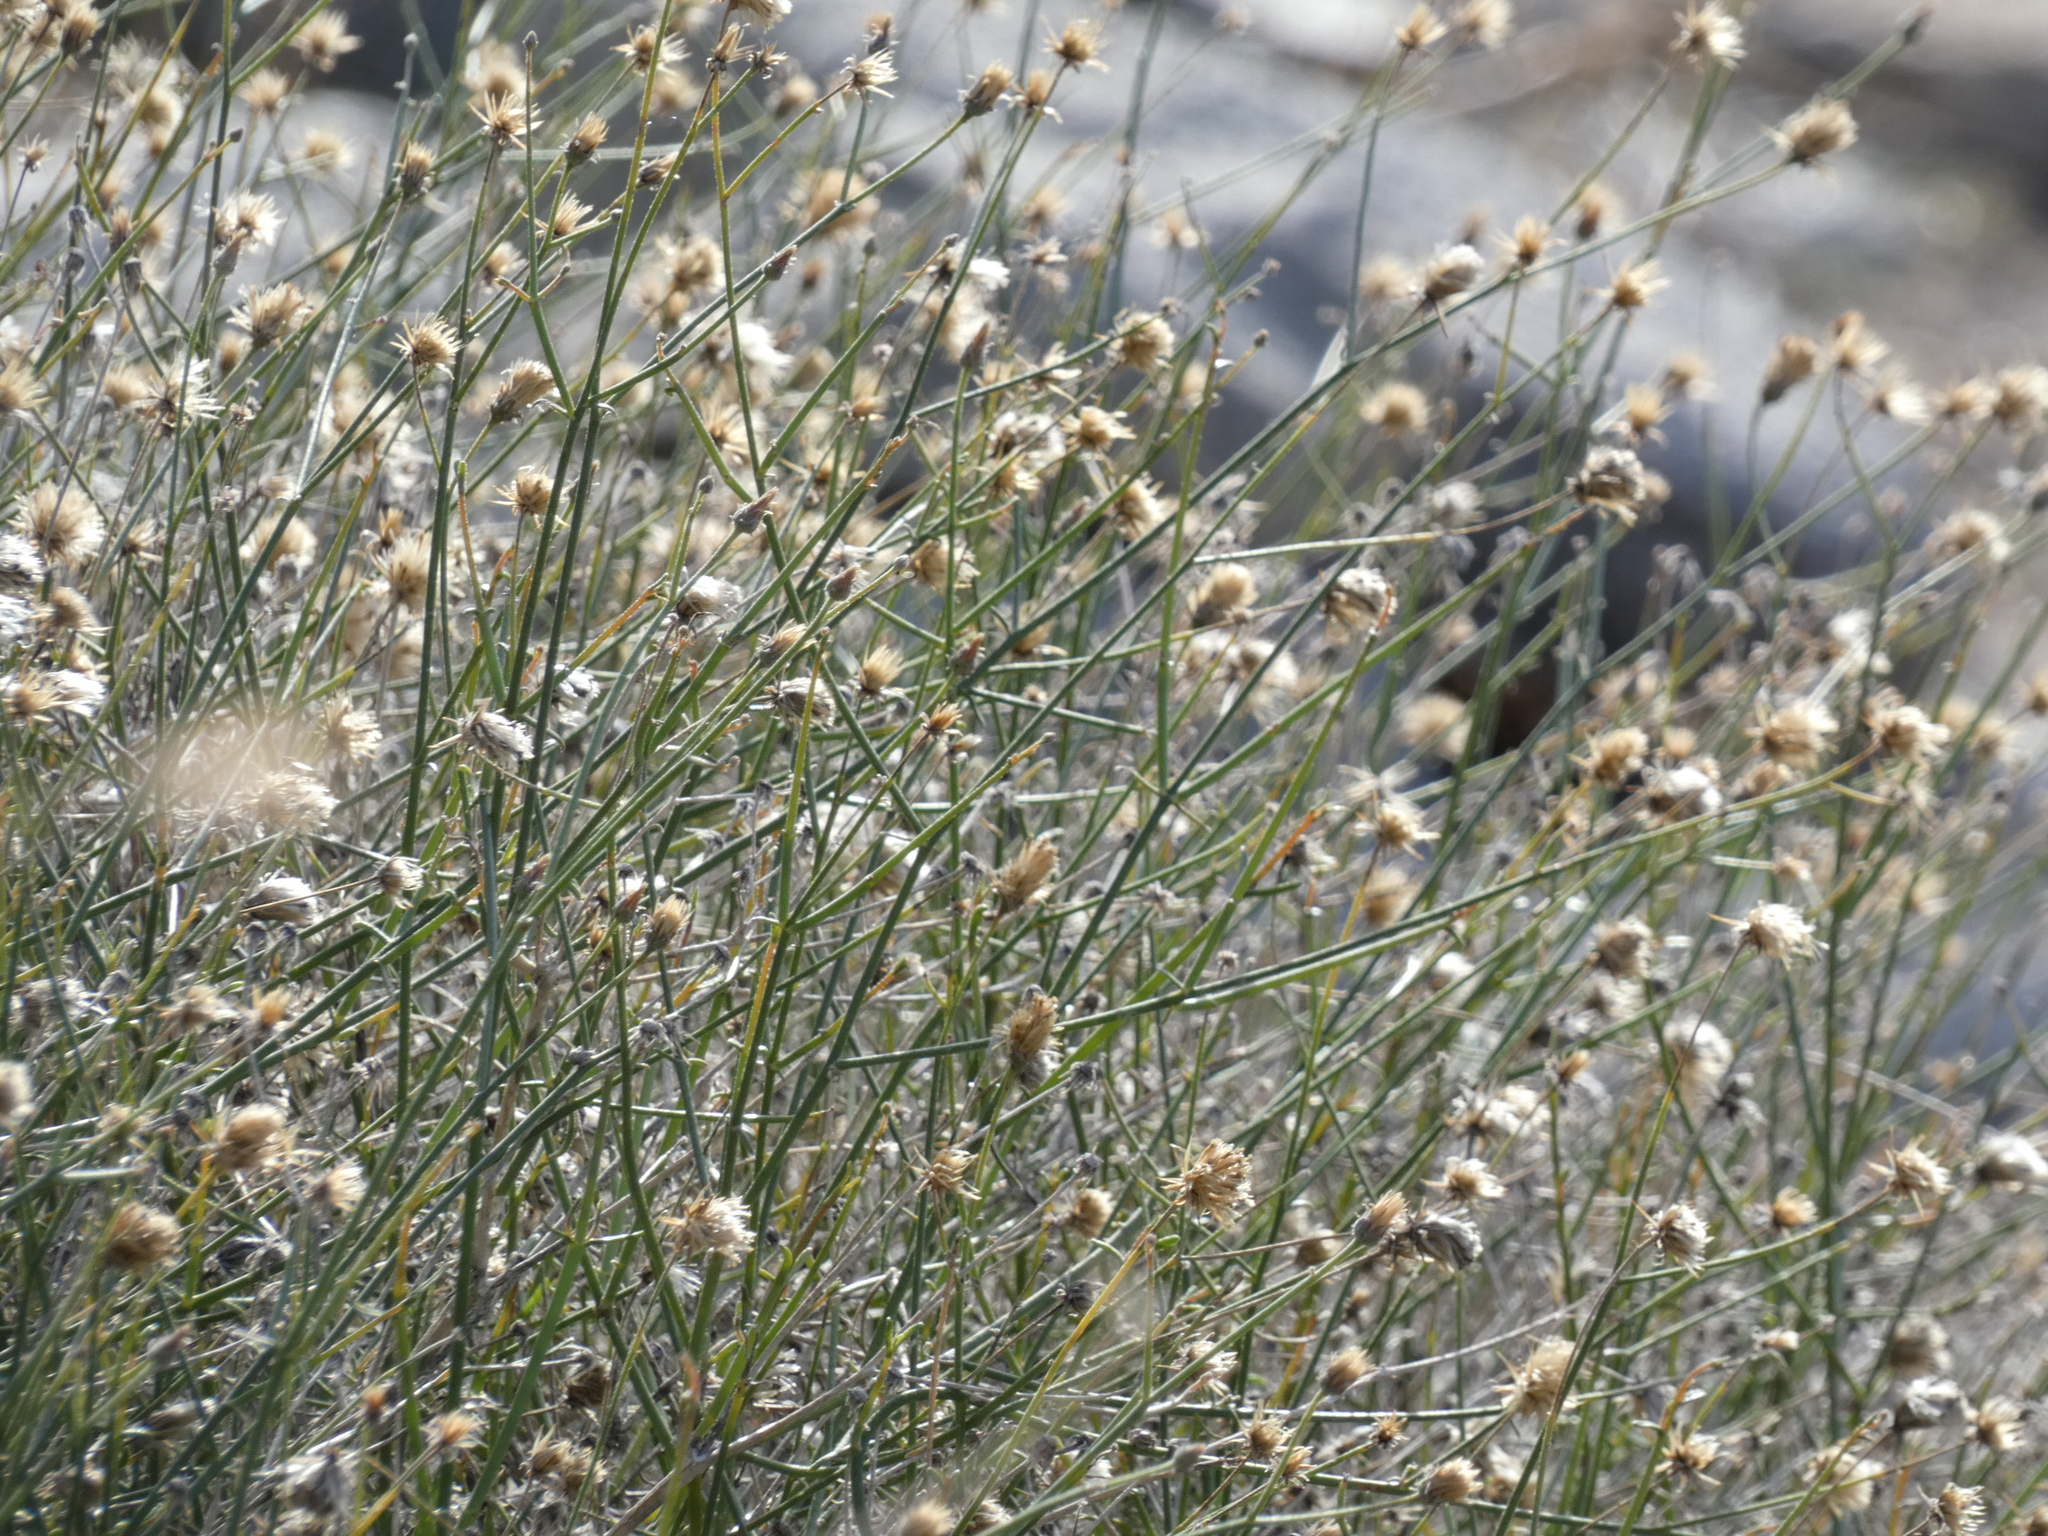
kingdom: Plantae
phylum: Tracheophyta
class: Magnoliopsida
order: Asterales
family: Asteraceae
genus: Bebbia
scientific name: Bebbia juncea
